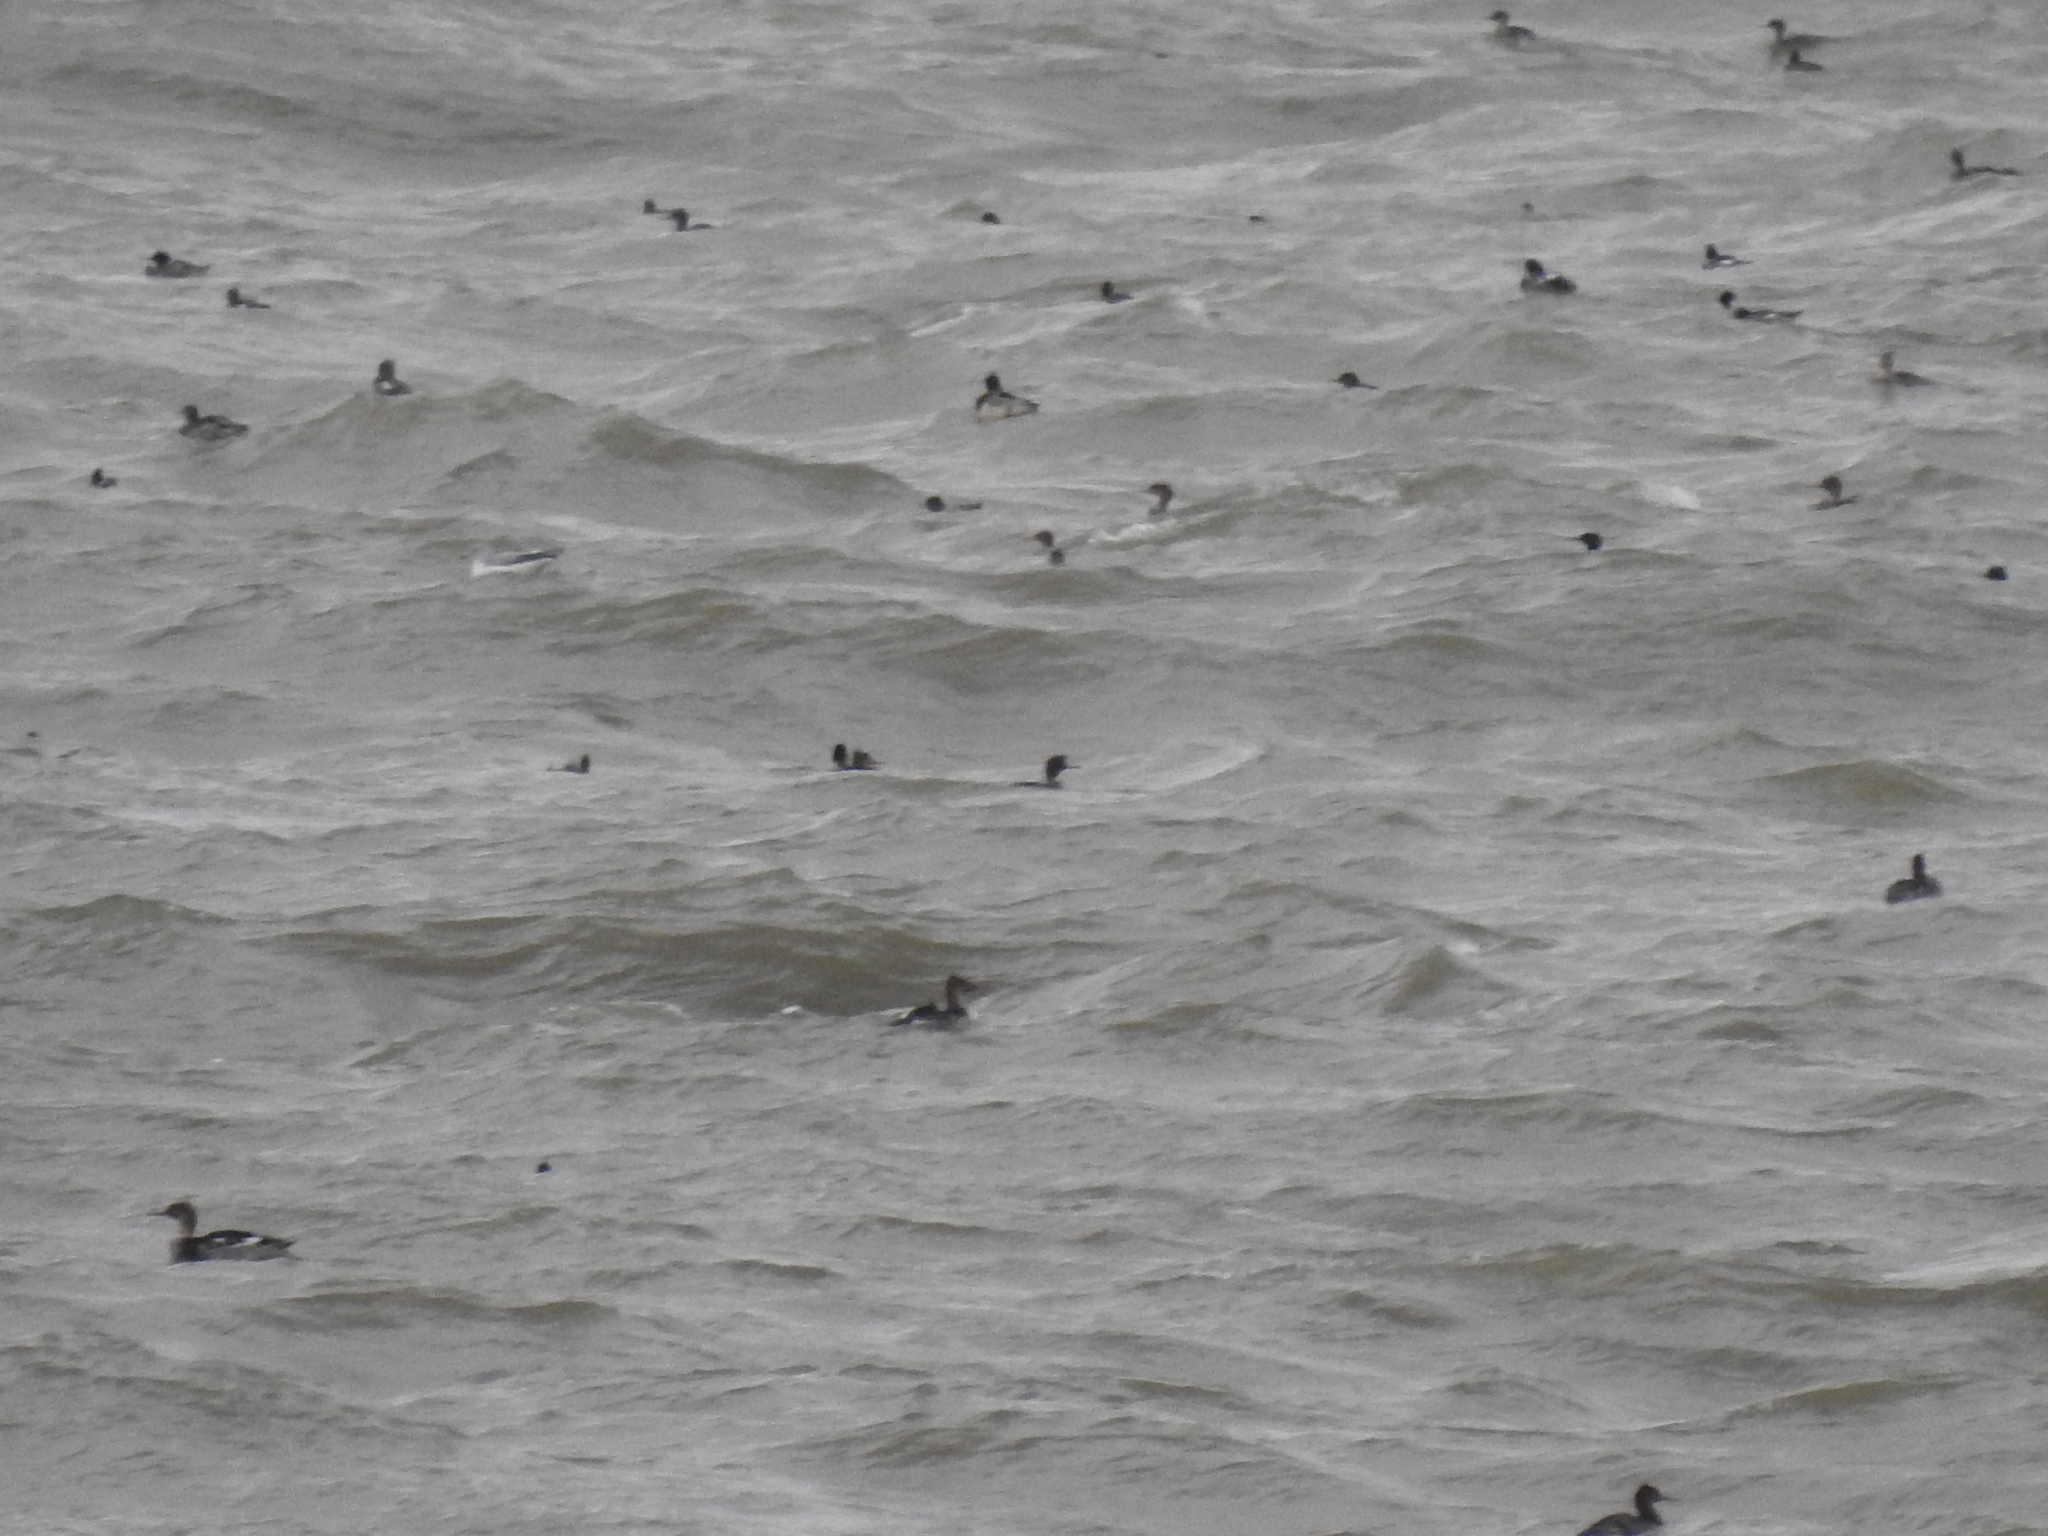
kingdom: Animalia
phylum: Chordata
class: Aves
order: Anseriformes
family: Anatidae
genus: Mergus
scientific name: Mergus serrator
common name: Red-breasted merganser
